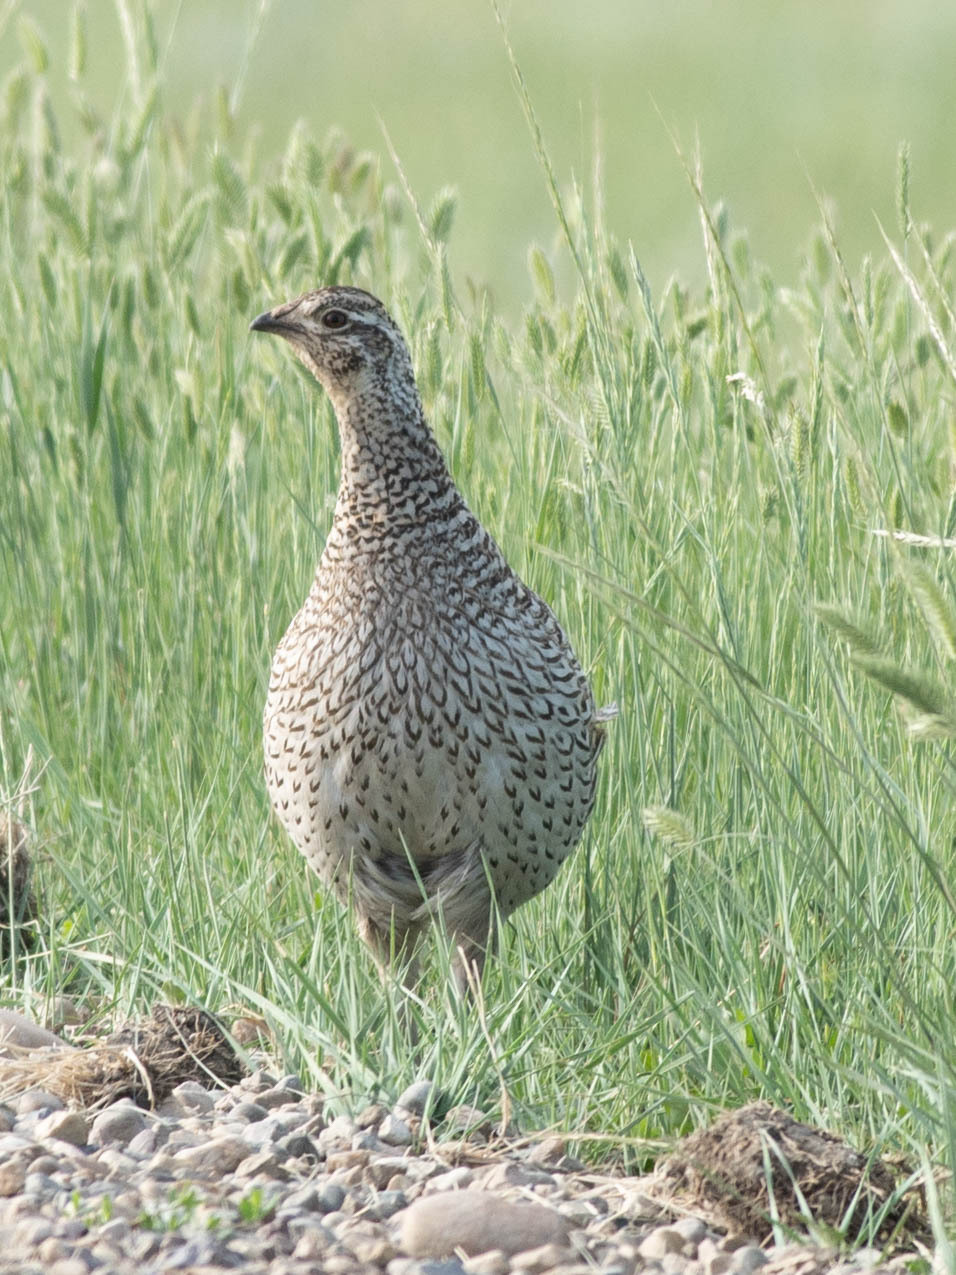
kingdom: Animalia
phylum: Chordata
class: Aves
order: Galliformes
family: Phasianidae
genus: Tympanuchus
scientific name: Tympanuchus phasianellus
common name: Sharp-tailed grouse
